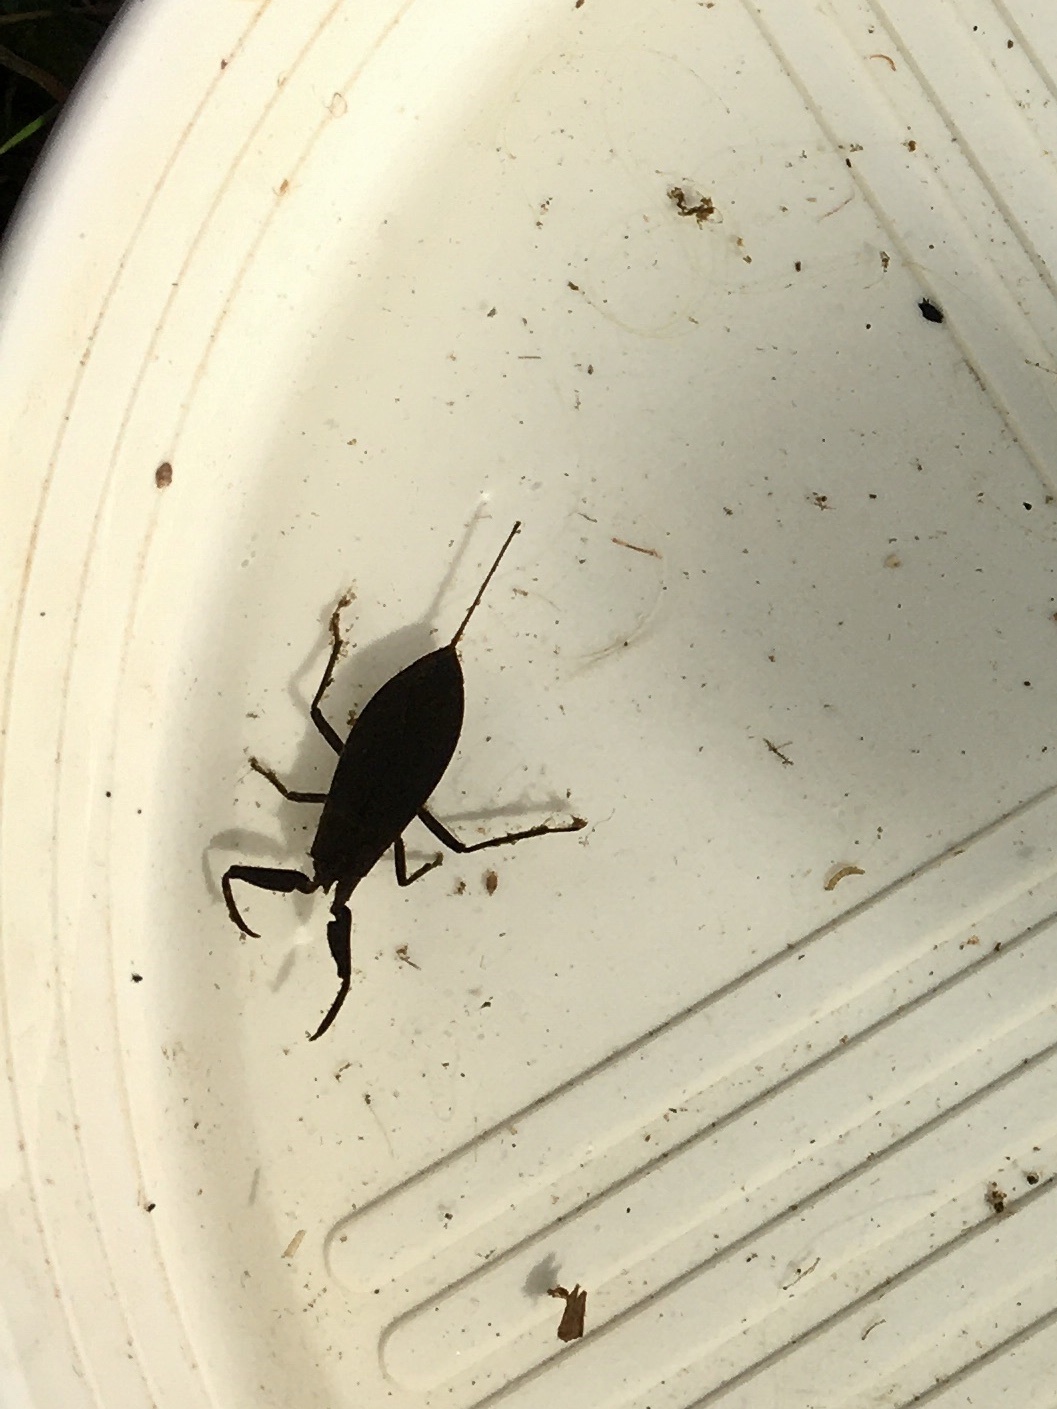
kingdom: Animalia
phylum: Arthropoda
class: Insecta
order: Hemiptera
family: Nepidae
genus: Nepa
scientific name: Nepa cinerea
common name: Water scorpion
